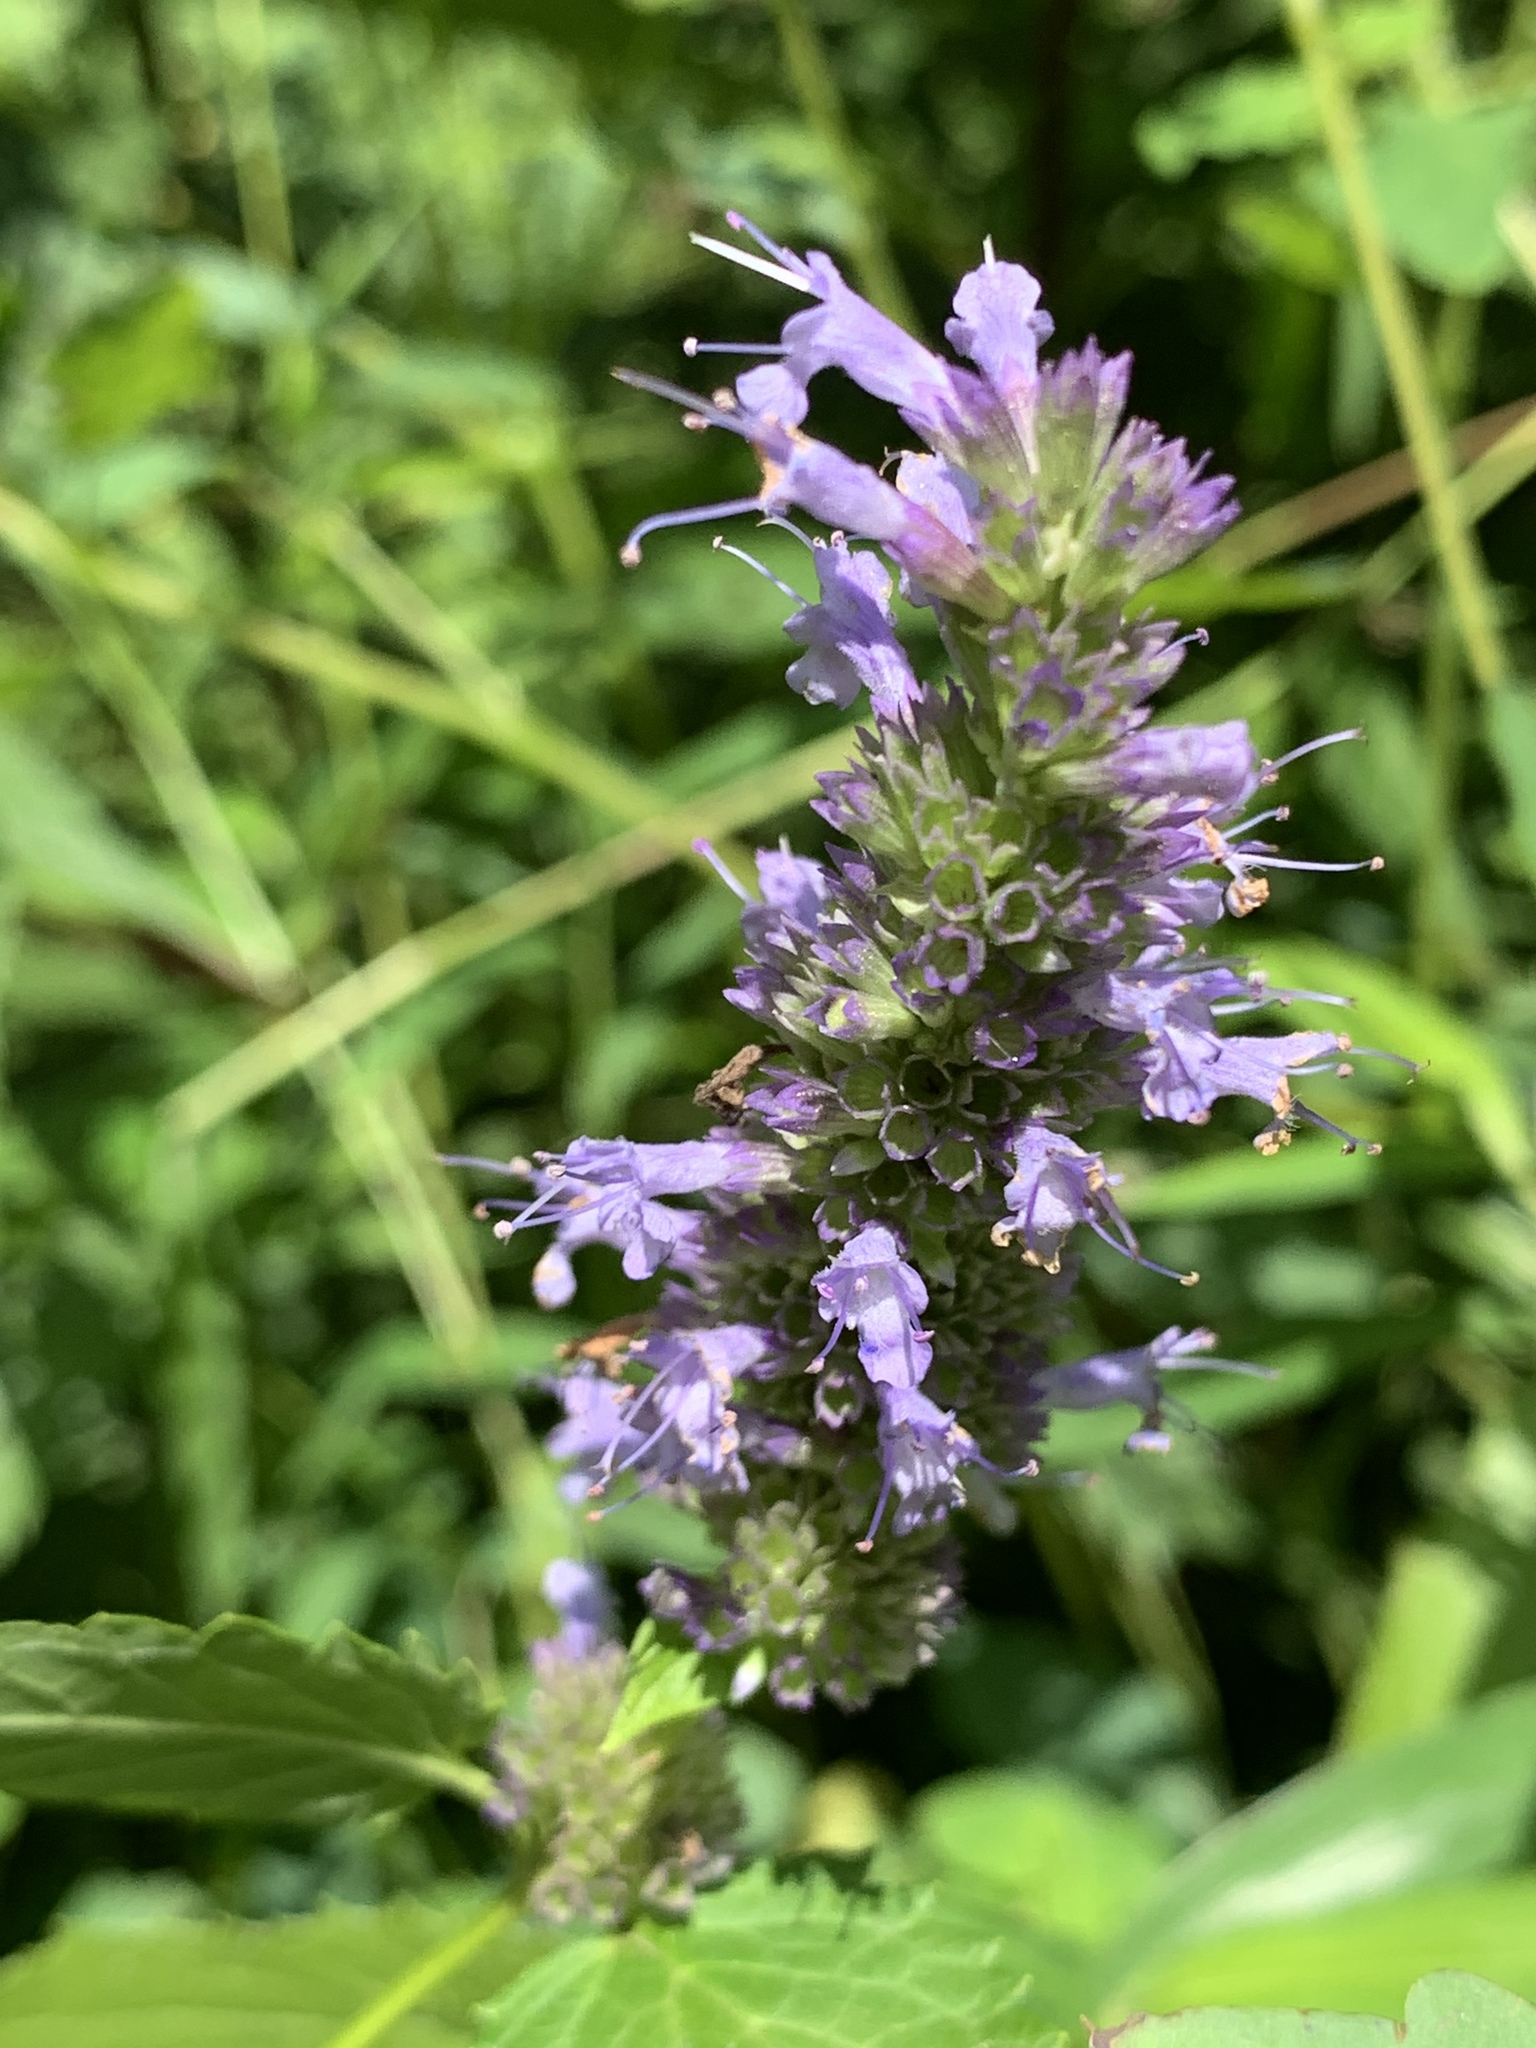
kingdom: Plantae
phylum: Tracheophyta
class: Magnoliopsida
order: Lamiales
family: Lamiaceae
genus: Agastache
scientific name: Agastache foeniculum
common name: Anise hyssop
